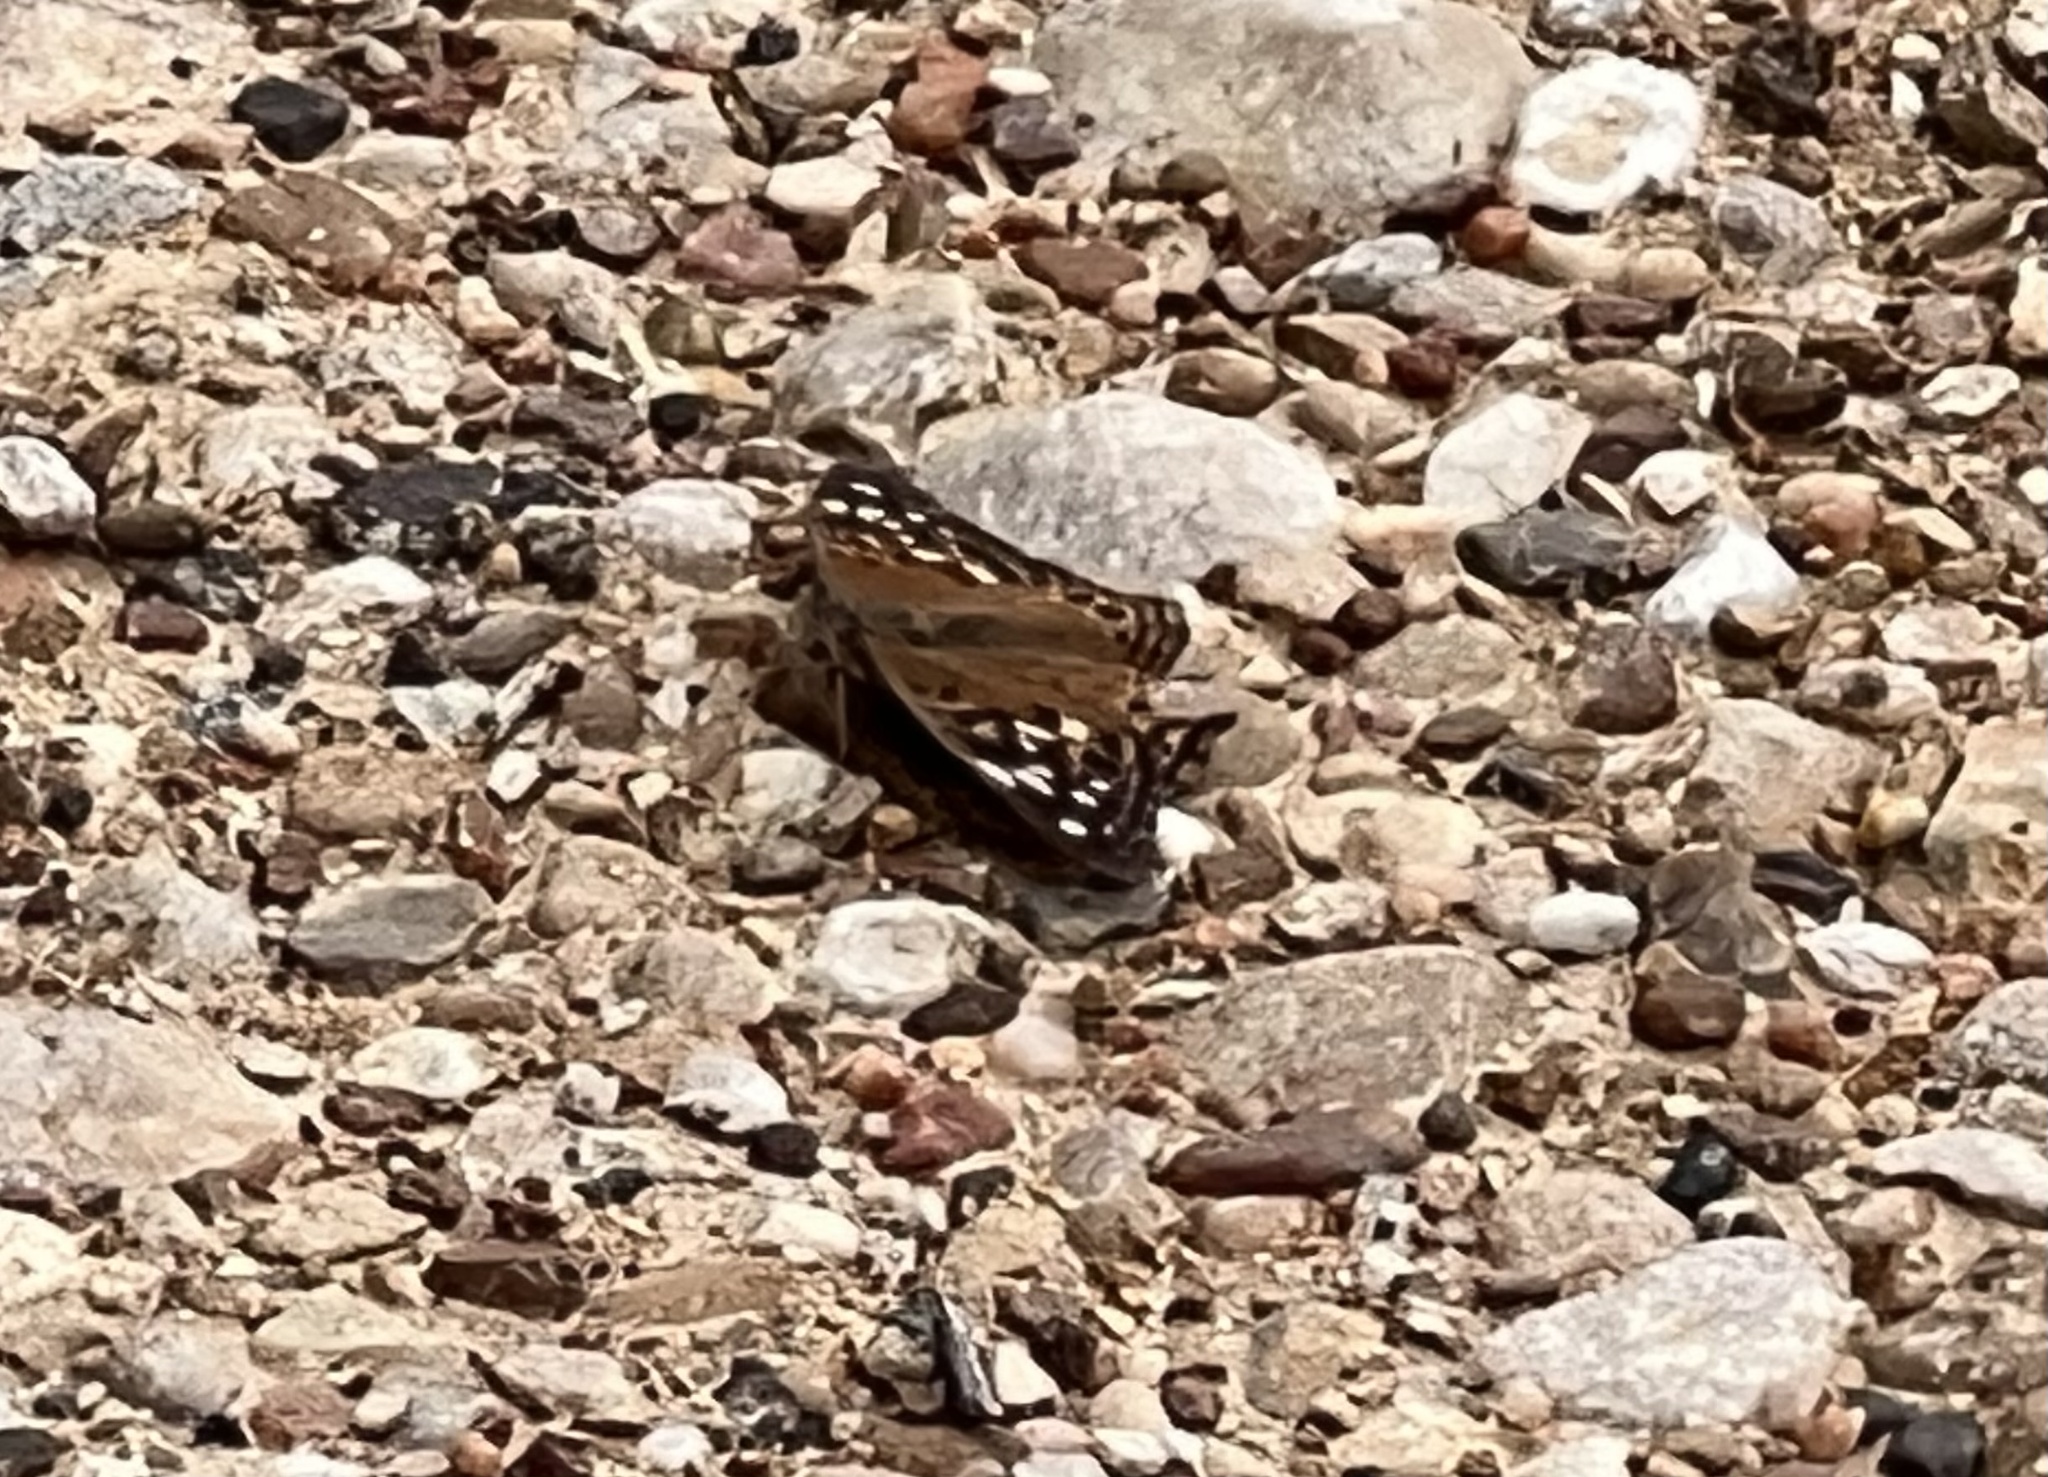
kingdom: Animalia
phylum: Arthropoda
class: Insecta
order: Lepidoptera
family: Nymphalidae
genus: Asterocampa
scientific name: Asterocampa celtis
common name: Hackberry emperor
